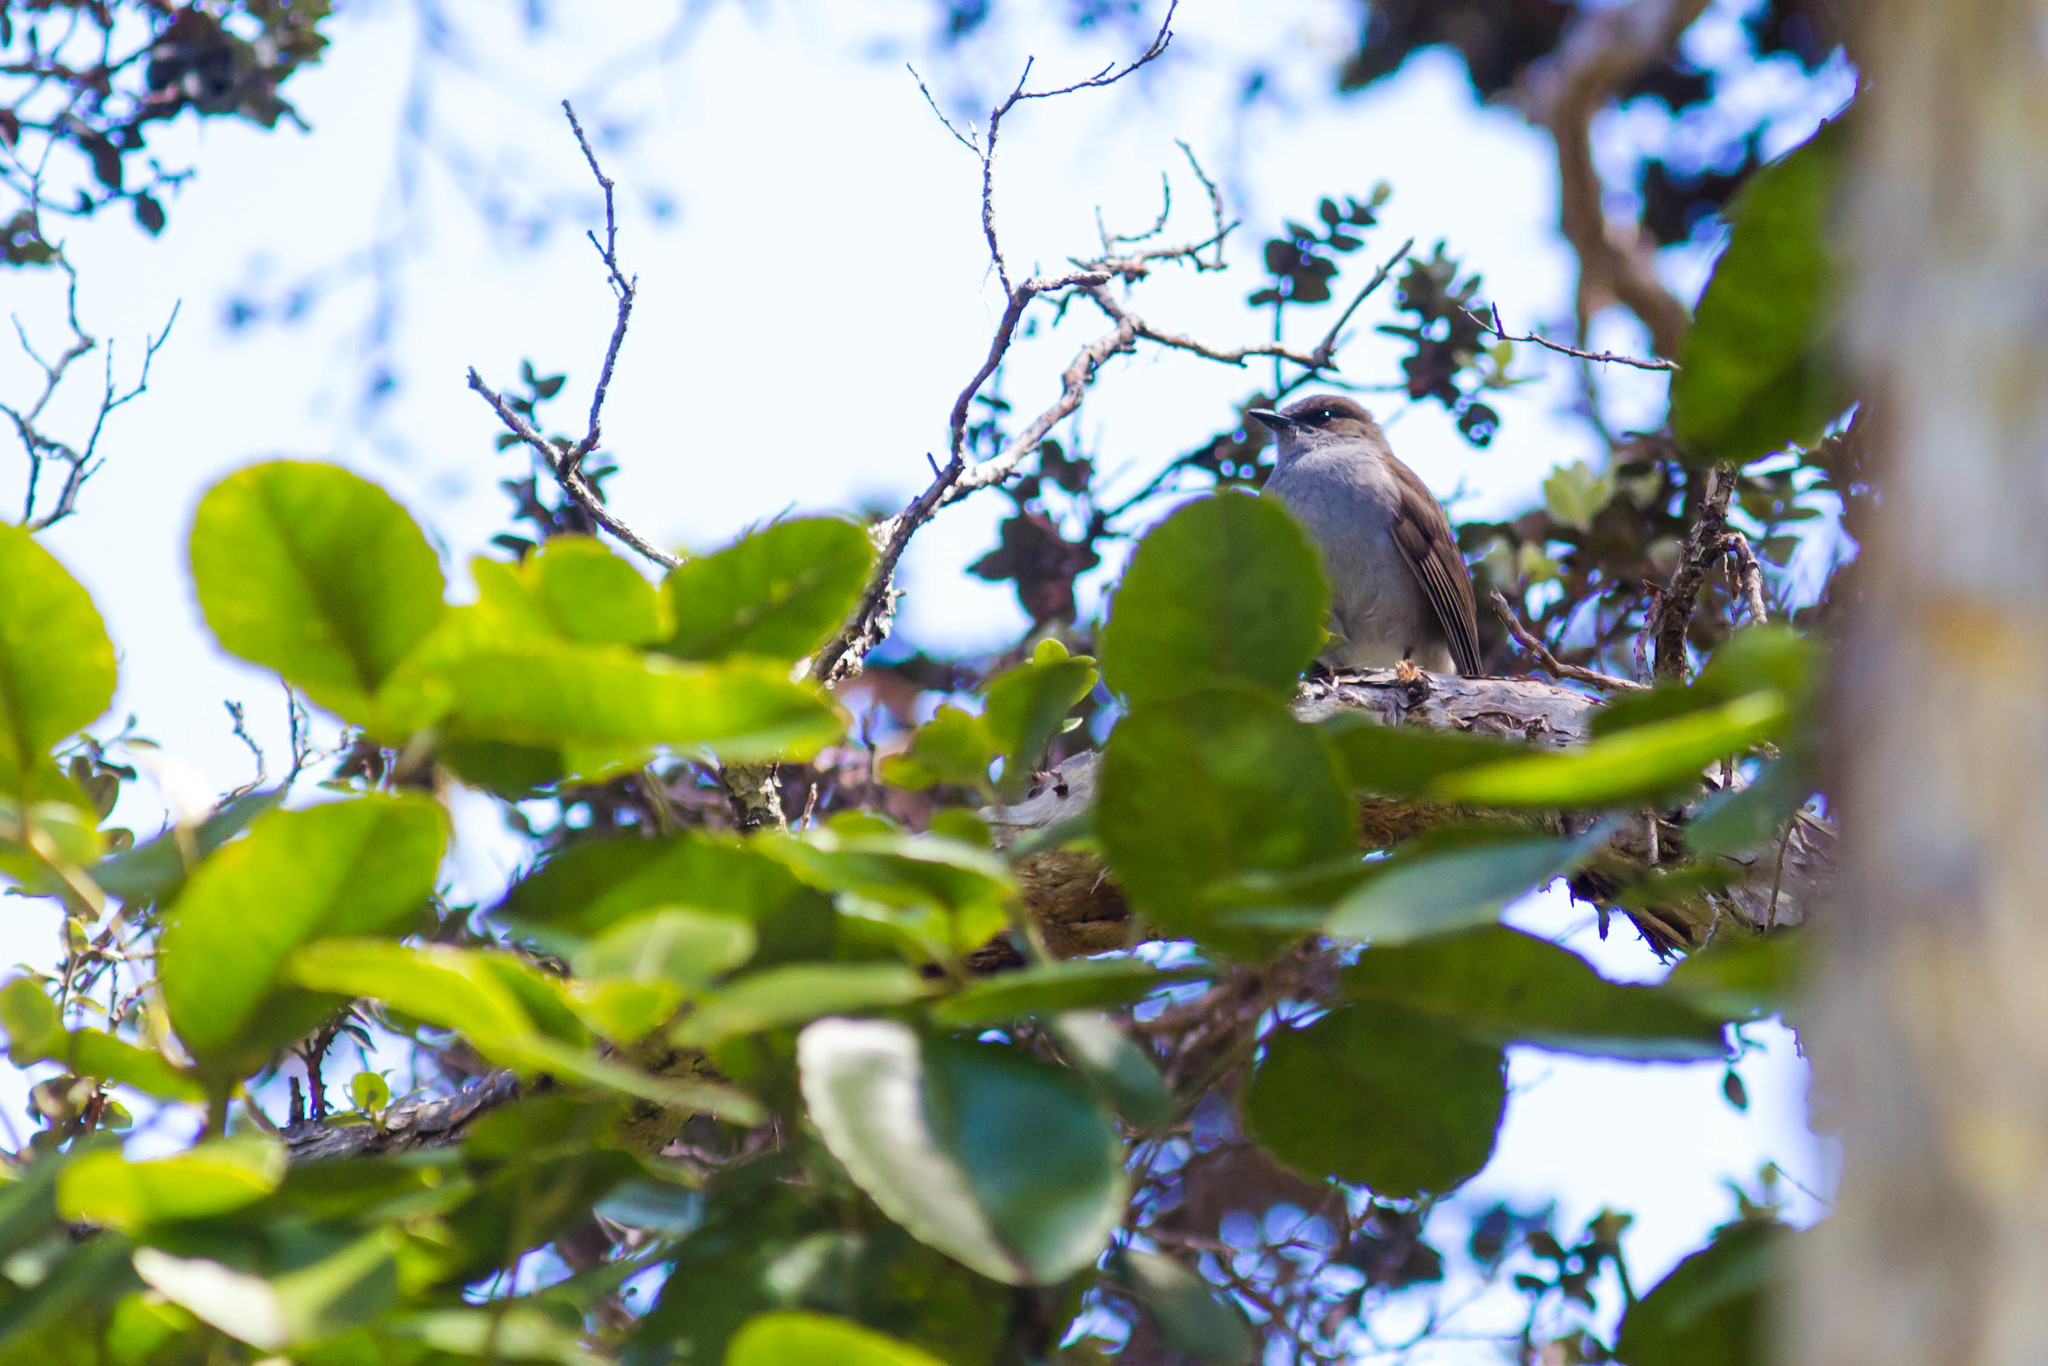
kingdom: Animalia
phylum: Chordata
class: Aves
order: Passeriformes
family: Turdidae
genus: Myadestes
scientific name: Myadestes obscurus
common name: Omao
